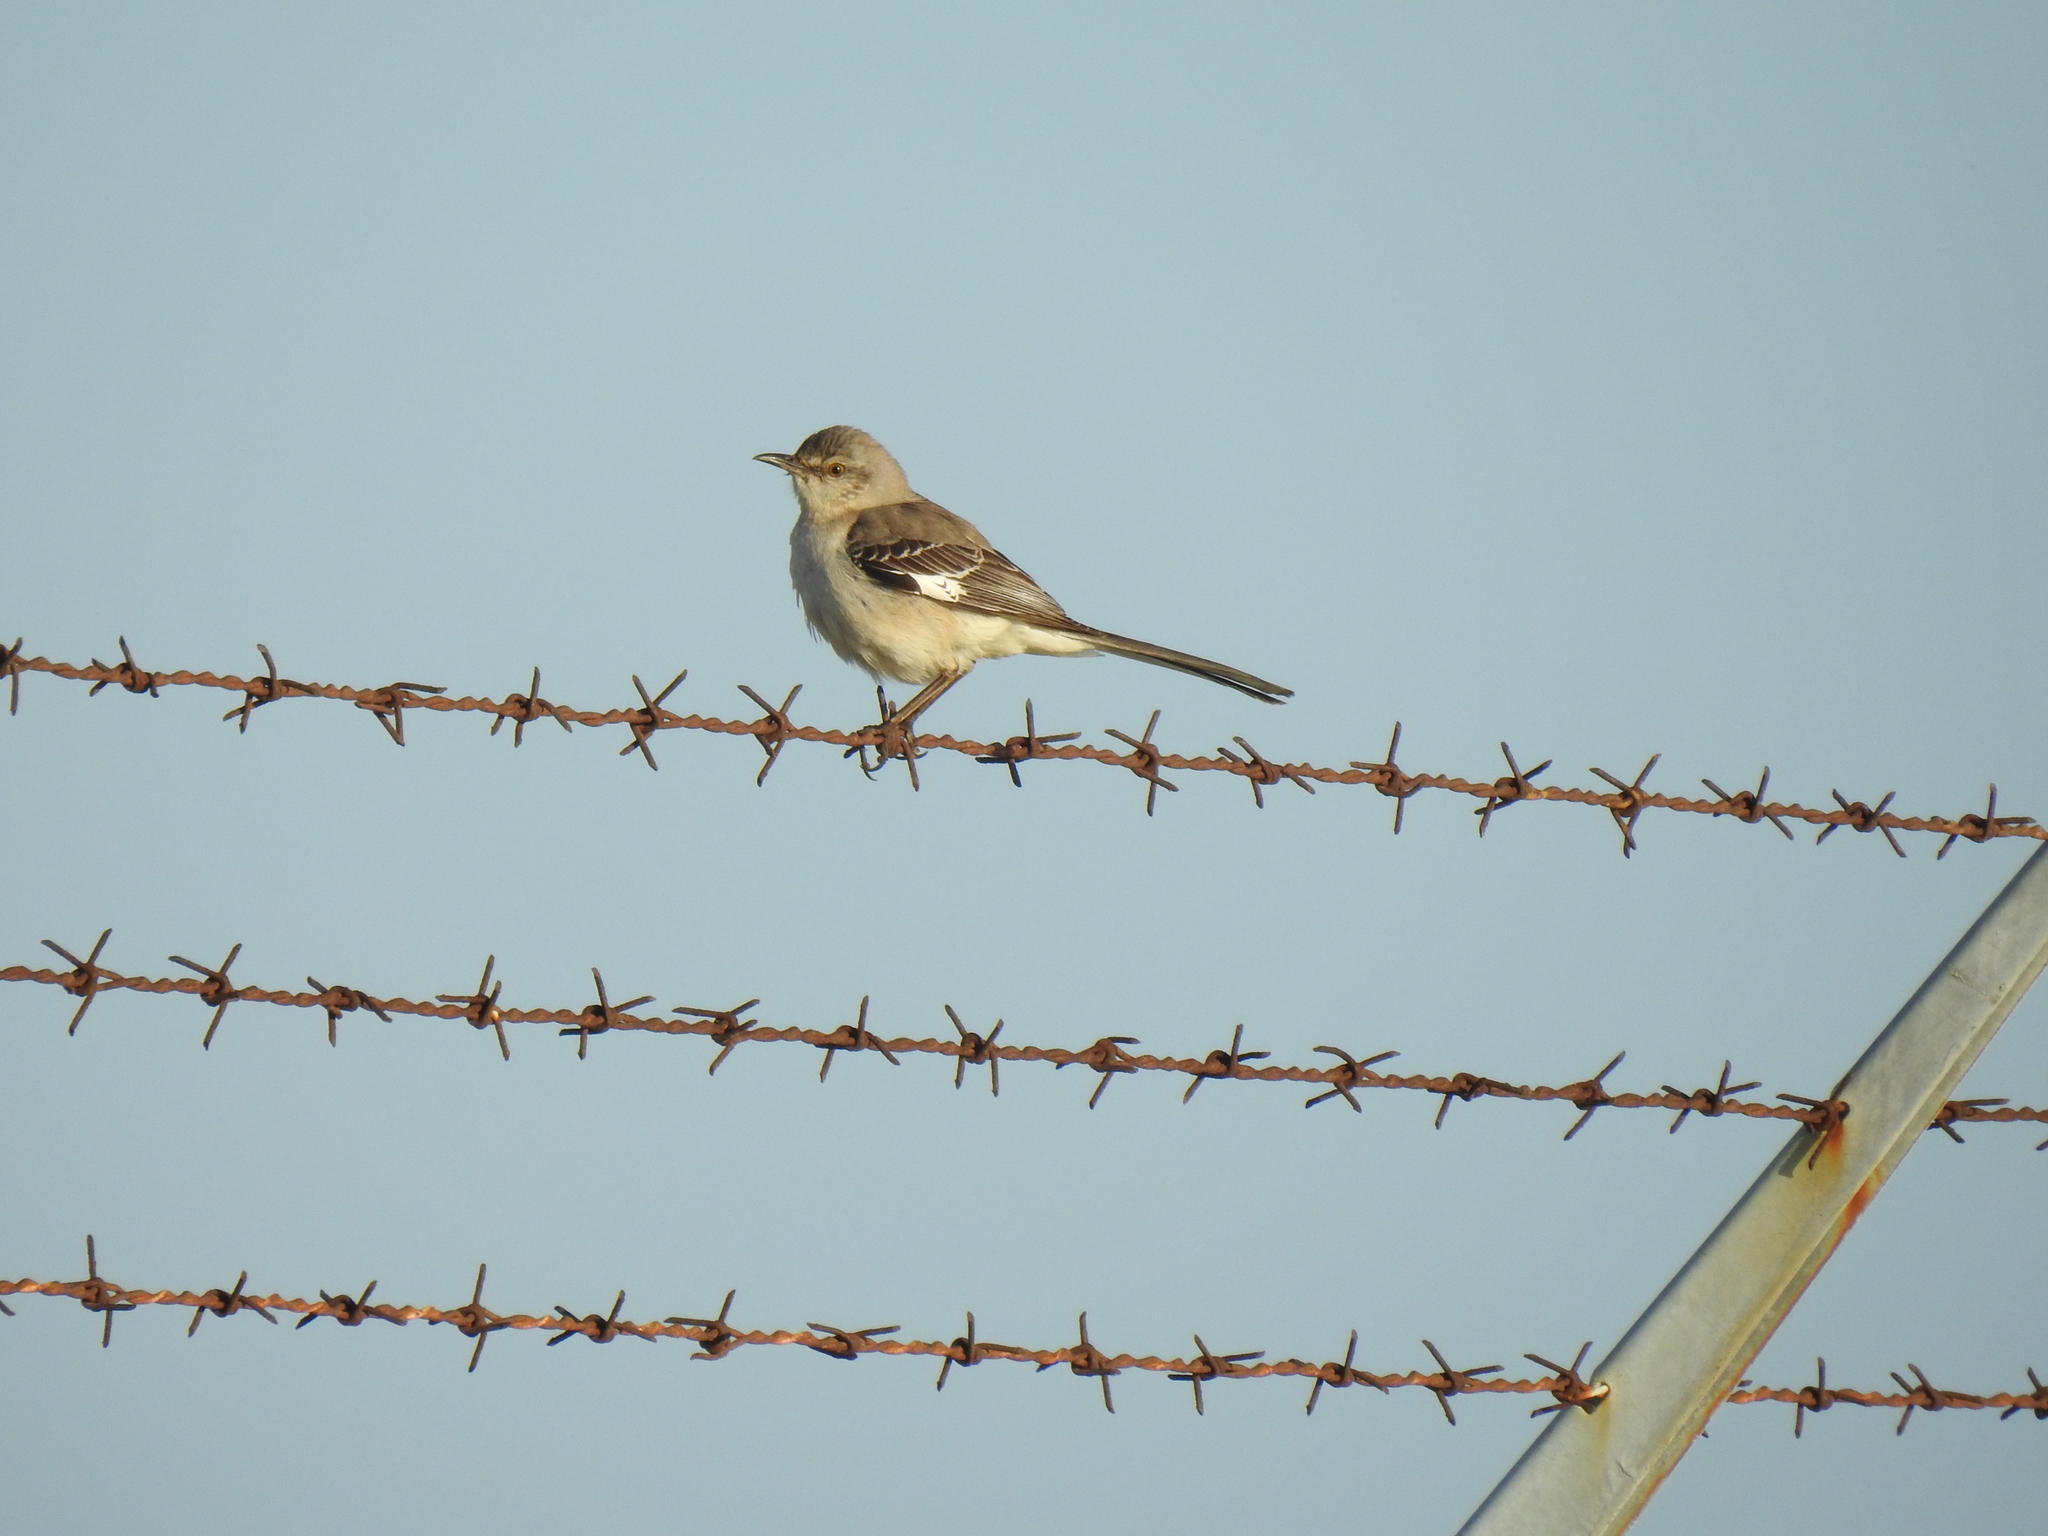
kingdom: Animalia
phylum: Chordata
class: Aves
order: Passeriformes
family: Mimidae
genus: Mimus
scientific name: Mimus polyglottos
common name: Northern mockingbird
